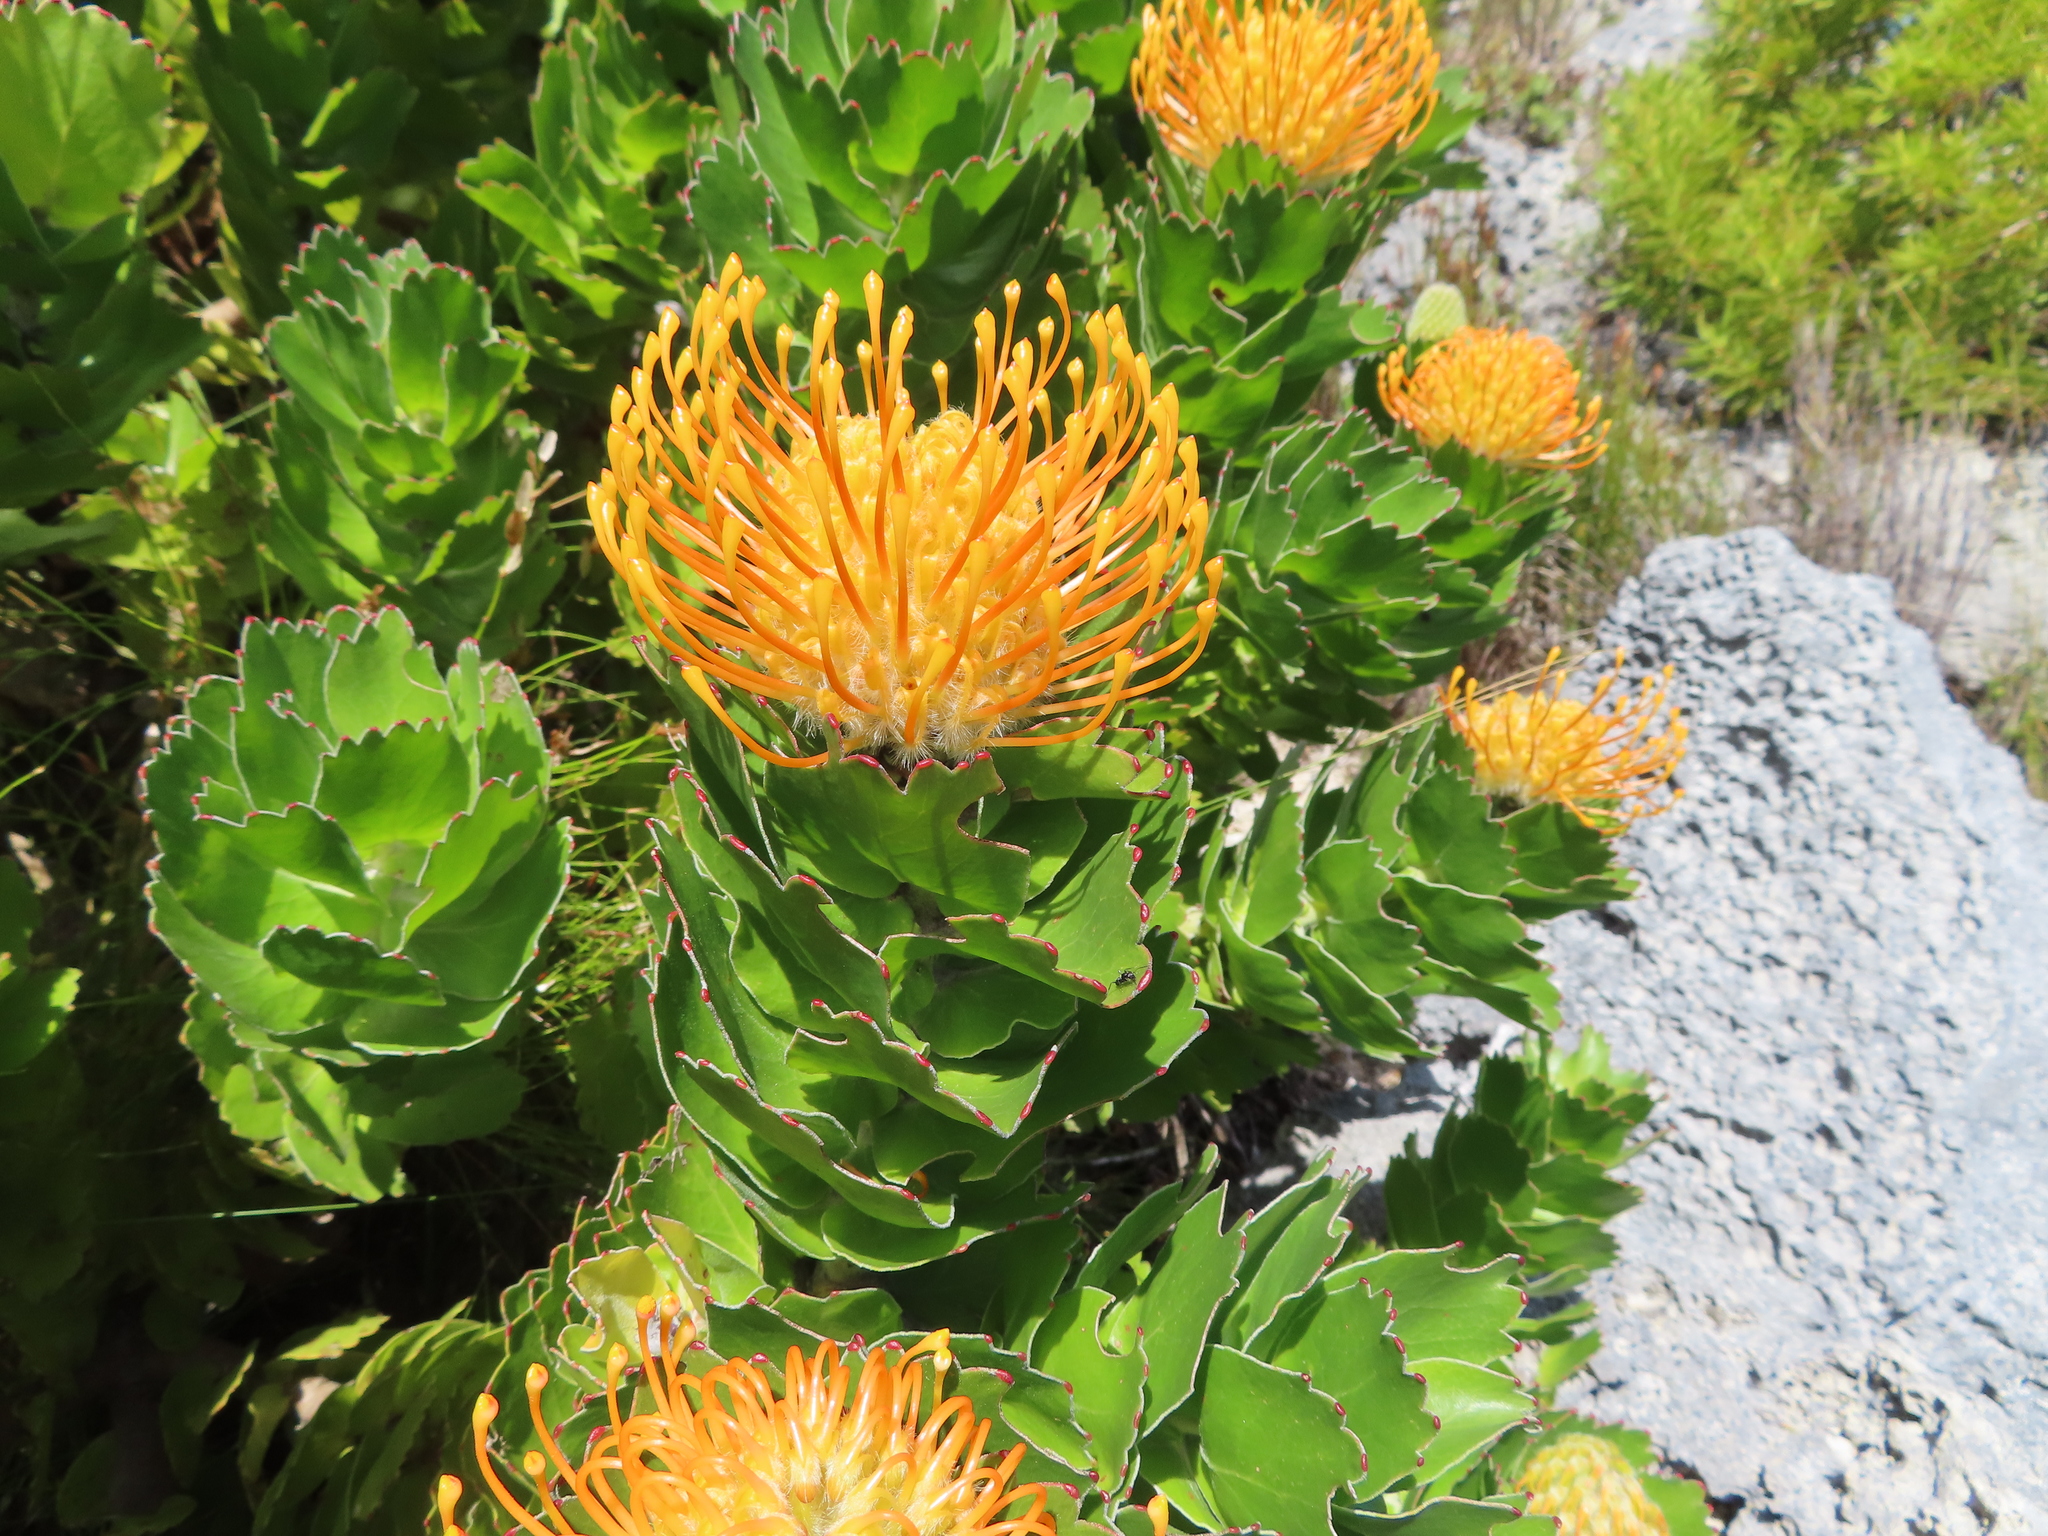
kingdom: Plantae
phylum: Tracheophyta
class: Magnoliopsida
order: Proteales
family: Proteaceae
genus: Leucospermum
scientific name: Leucospermum patersonii
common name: False tree pincushion
